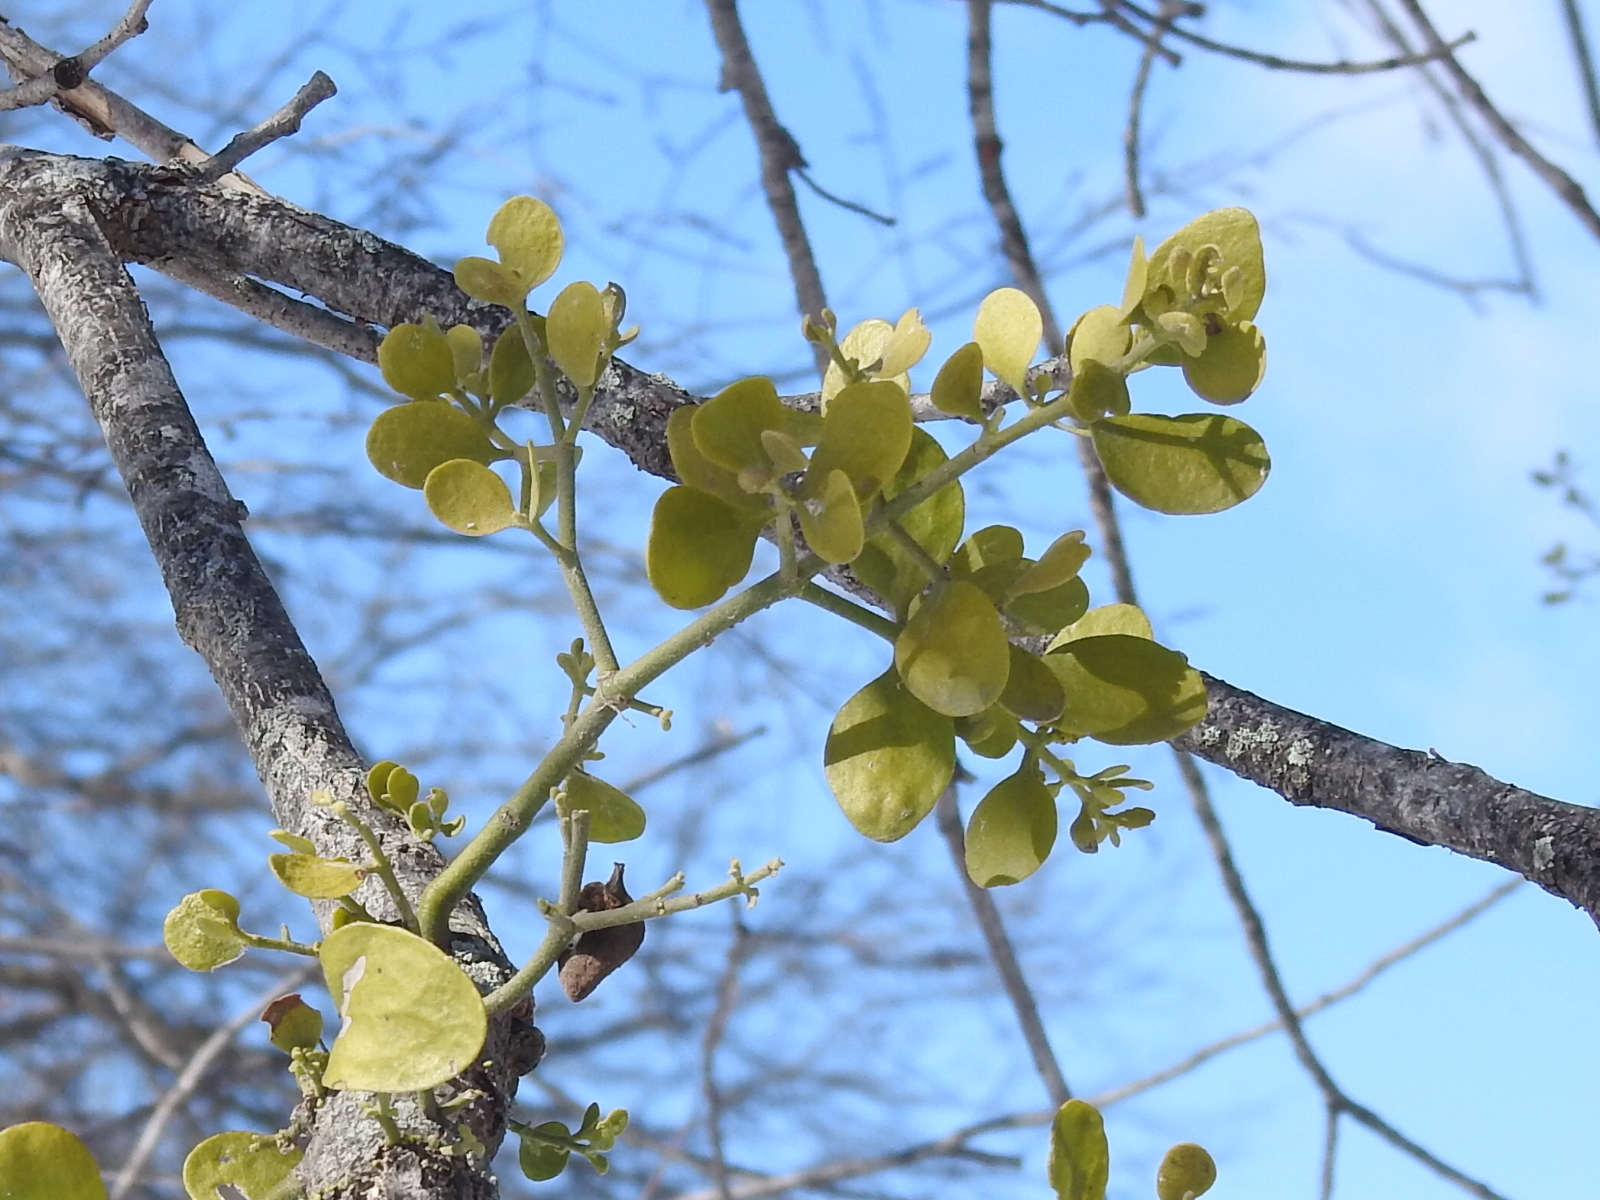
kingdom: Plantae
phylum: Tracheophyta
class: Magnoliopsida
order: Santalales
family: Viscaceae
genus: Phoradendron
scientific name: Phoradendron leucarpum
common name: Pacific mistletoe
